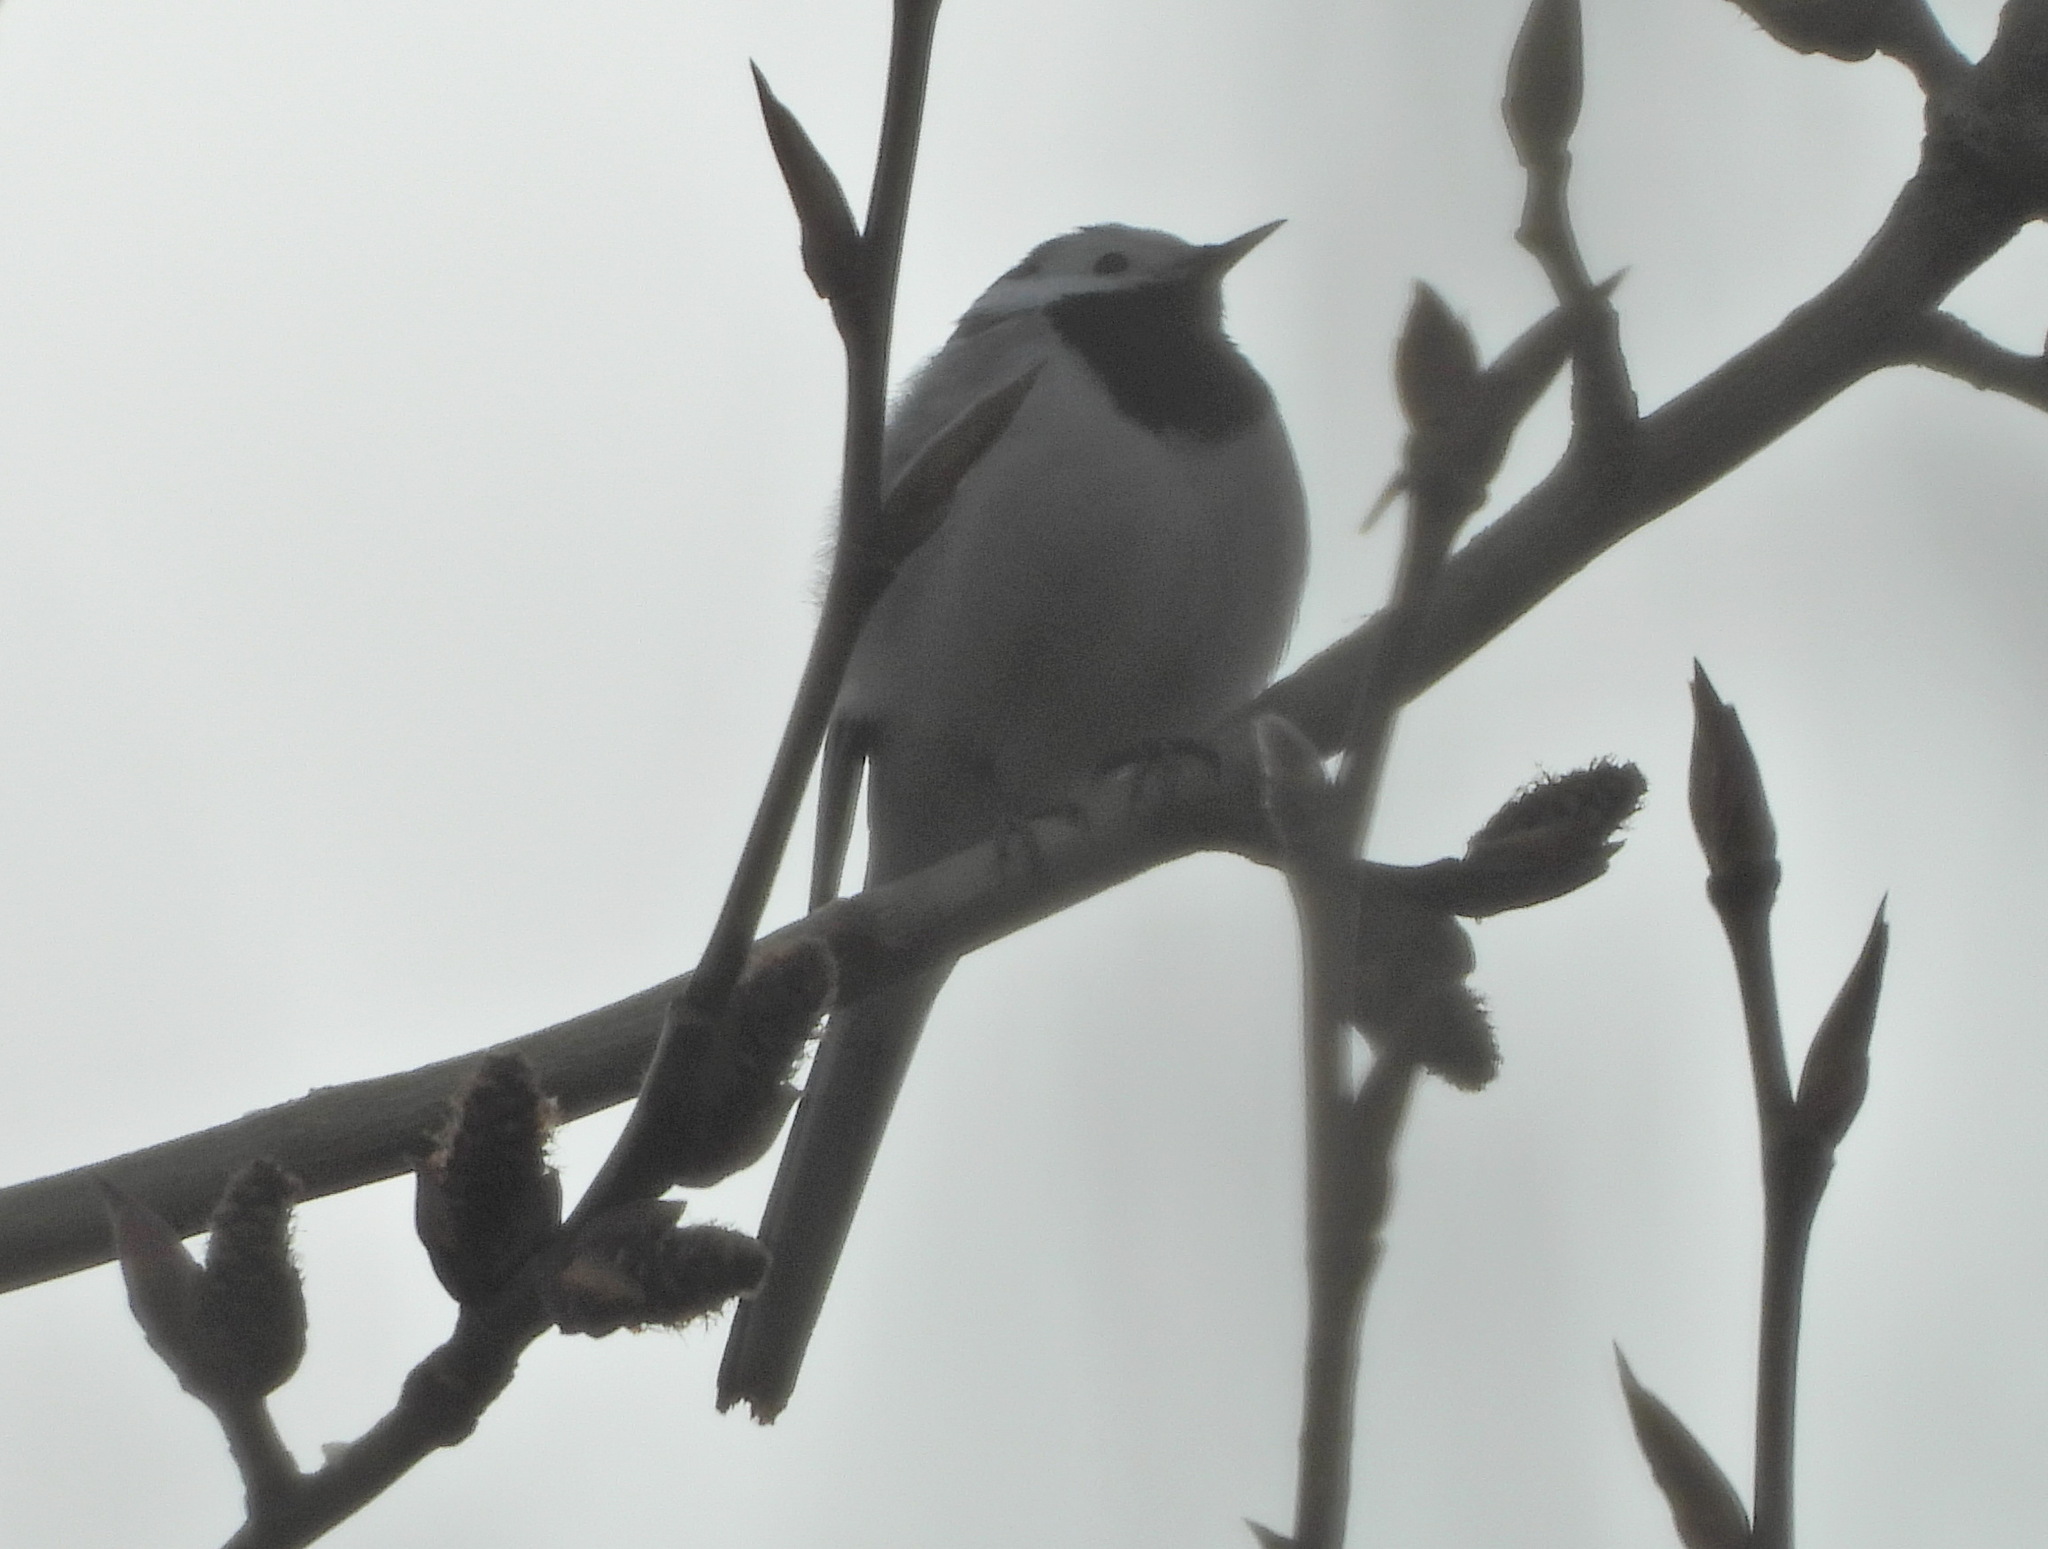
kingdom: Animalia
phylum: Chordata
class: Aves
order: Passeriformes
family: Motacillidae
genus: Motacilla
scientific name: Motacilla alba
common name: White wagtail
